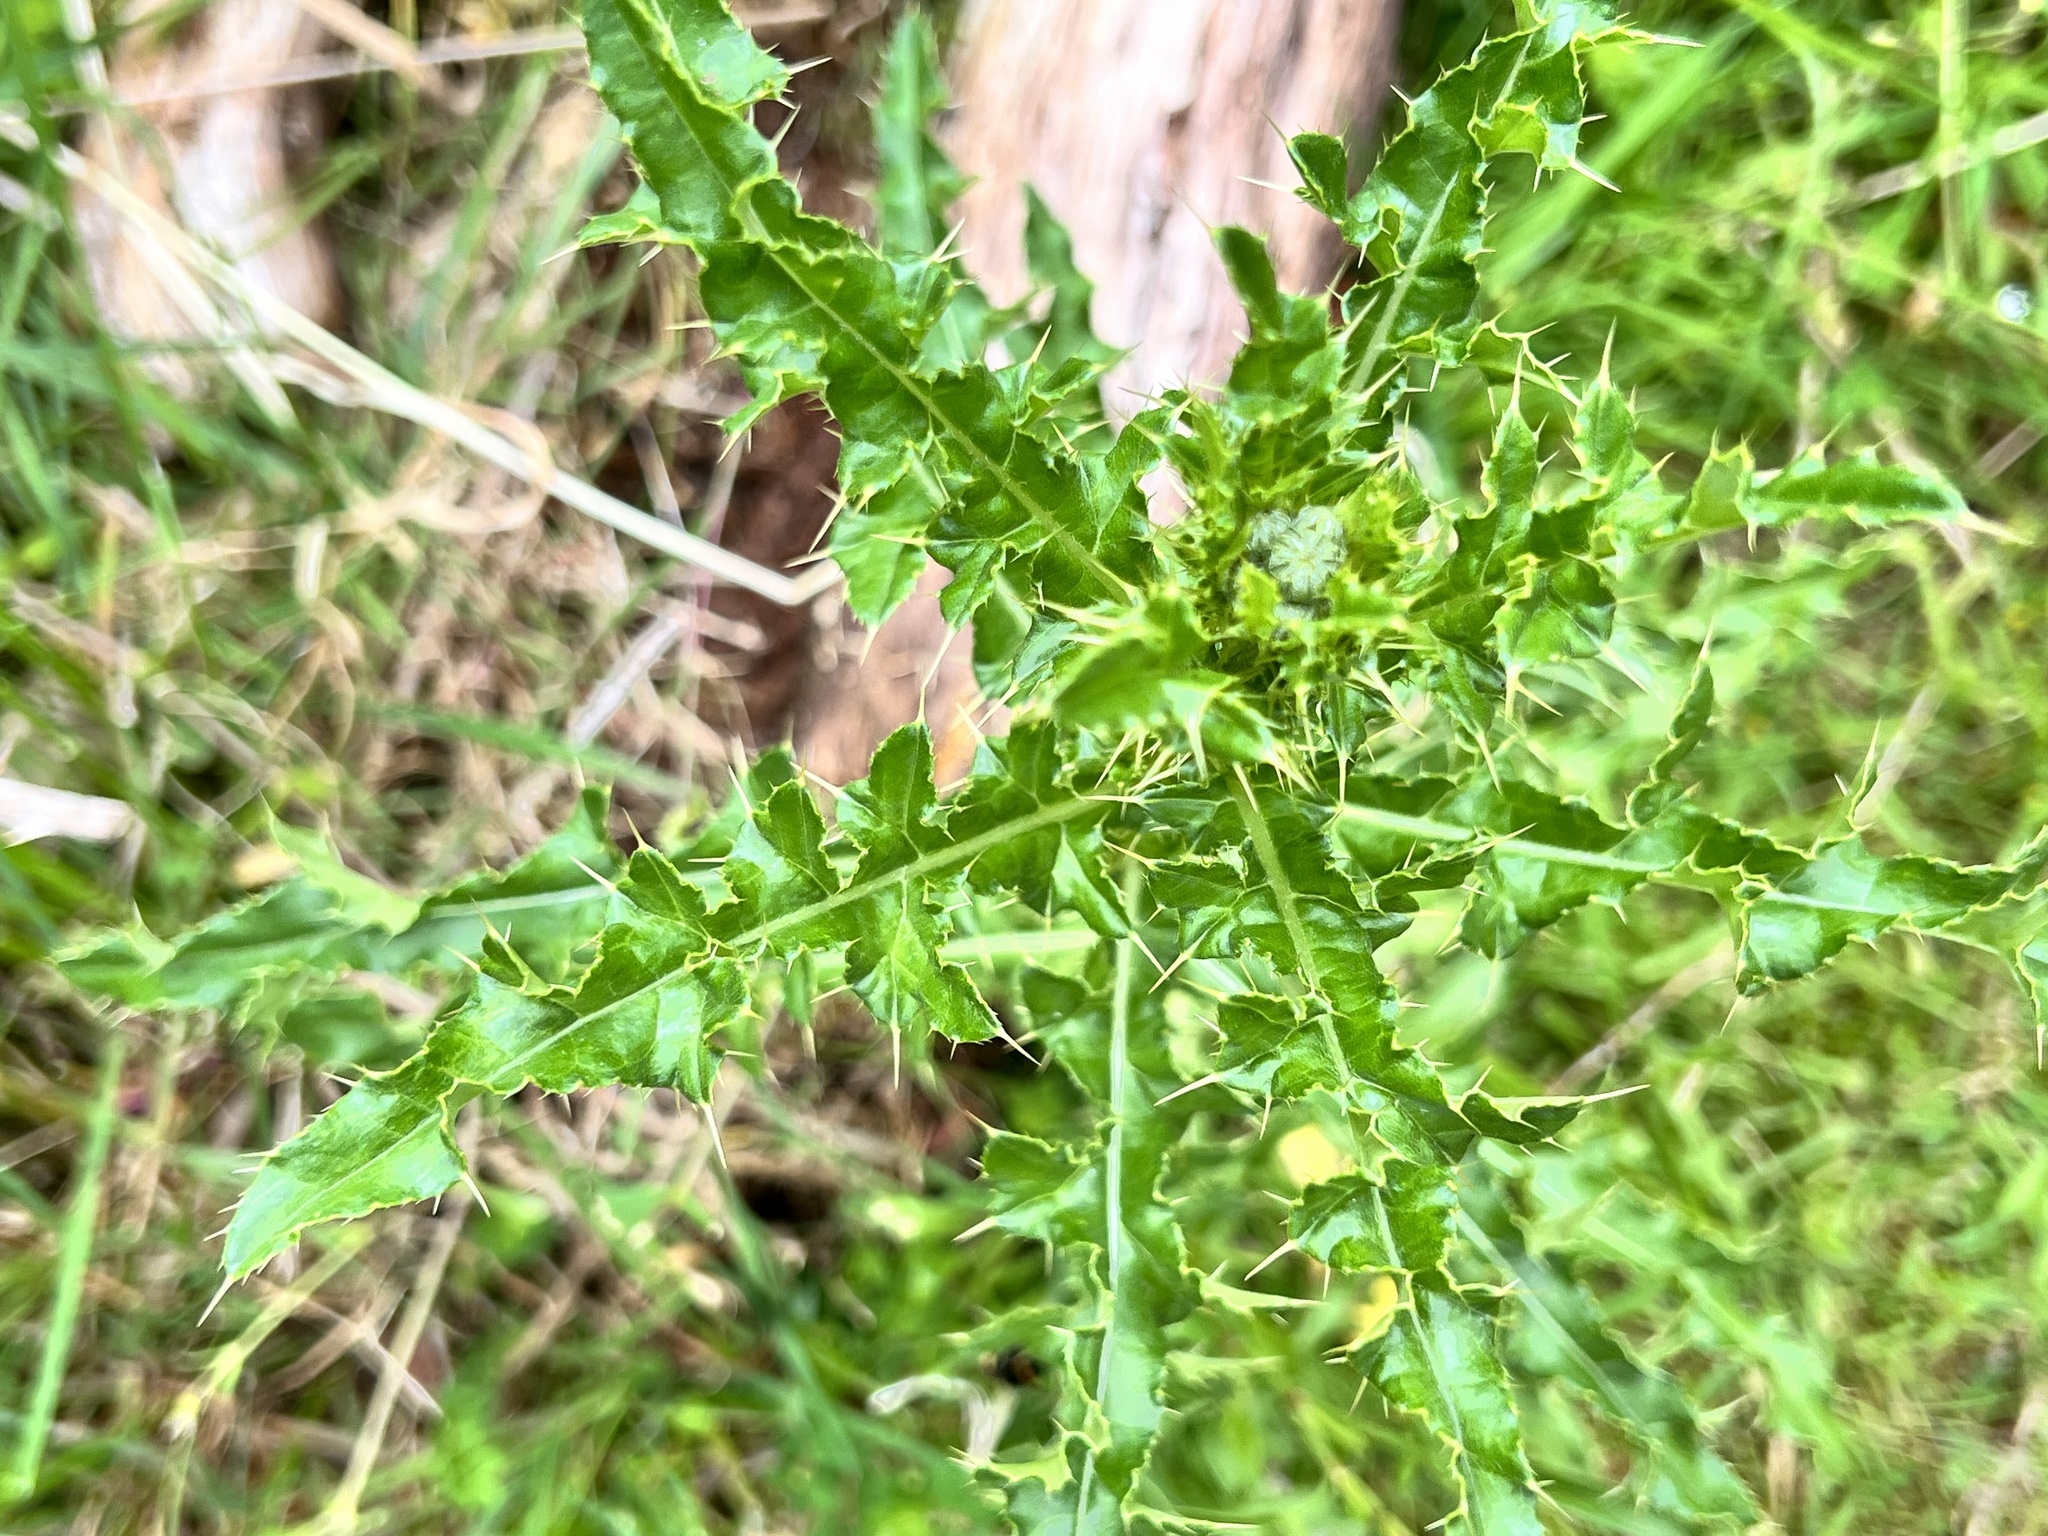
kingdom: Plantae
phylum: Tracheophyta
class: Magnoliopsida
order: Asterales
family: Asteraceae
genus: Cirsium
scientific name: Cirsium arvense
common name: Creeping thistle
